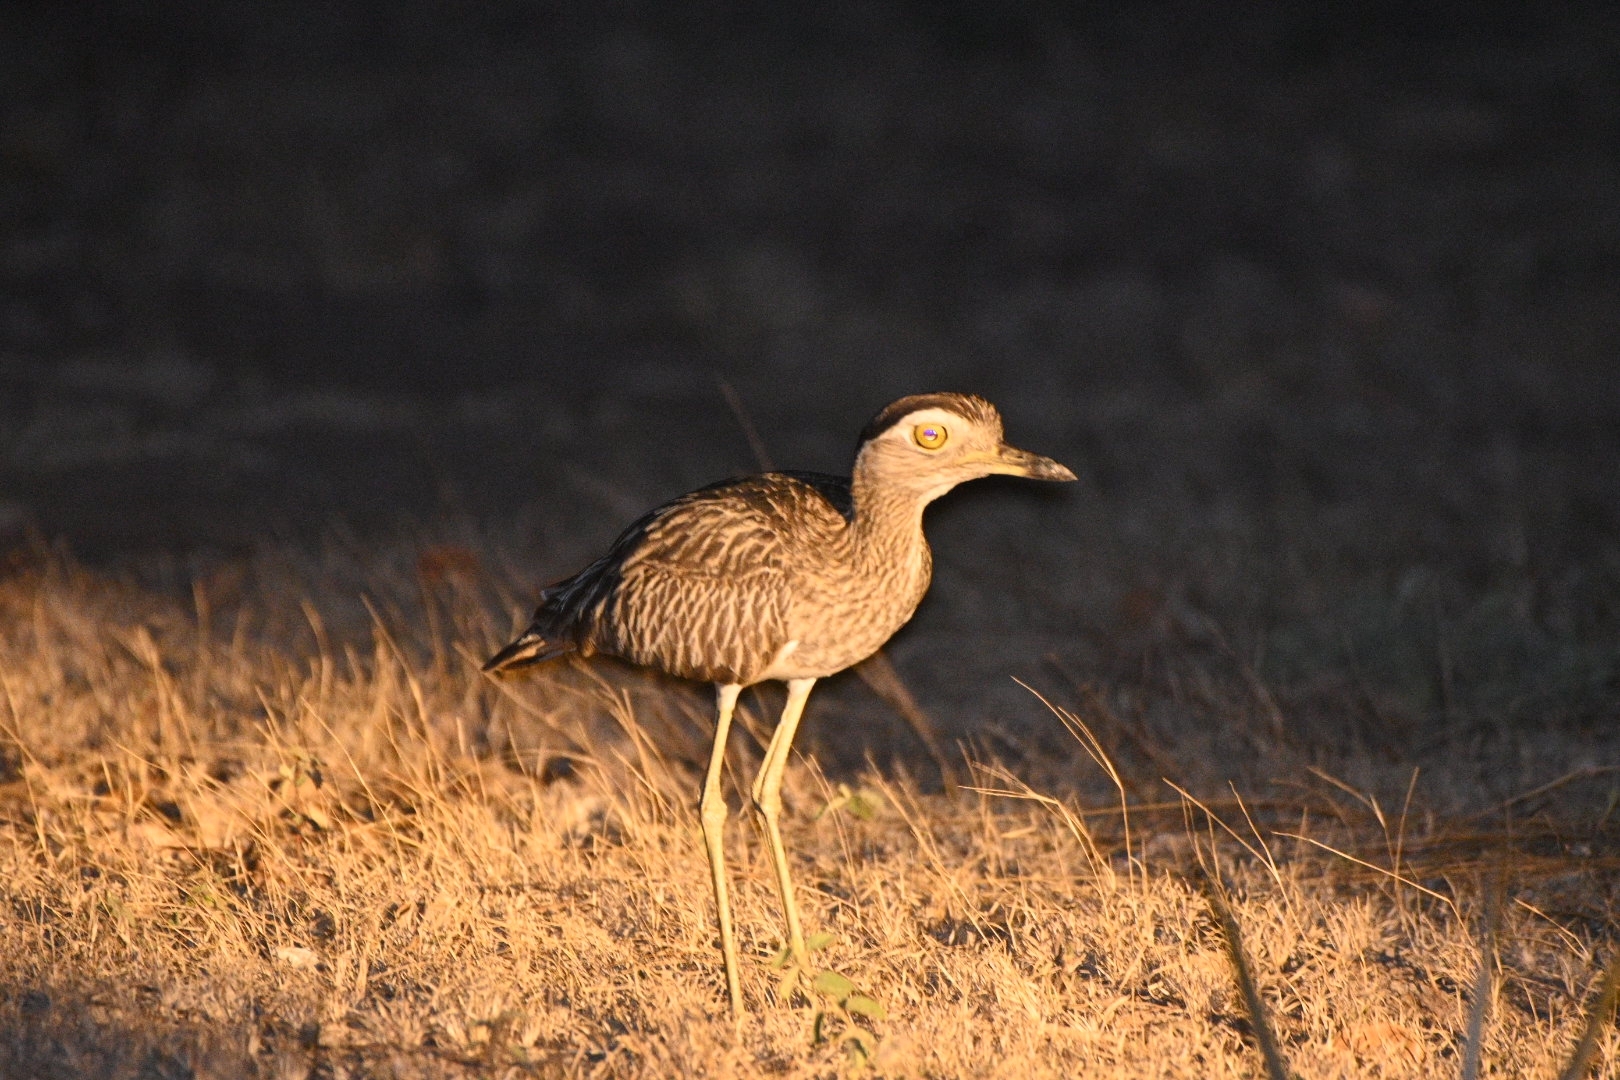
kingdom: Animalia
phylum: Chordata
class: Aves
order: Charadriiformes
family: Burhinidae
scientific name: Burhinidae
